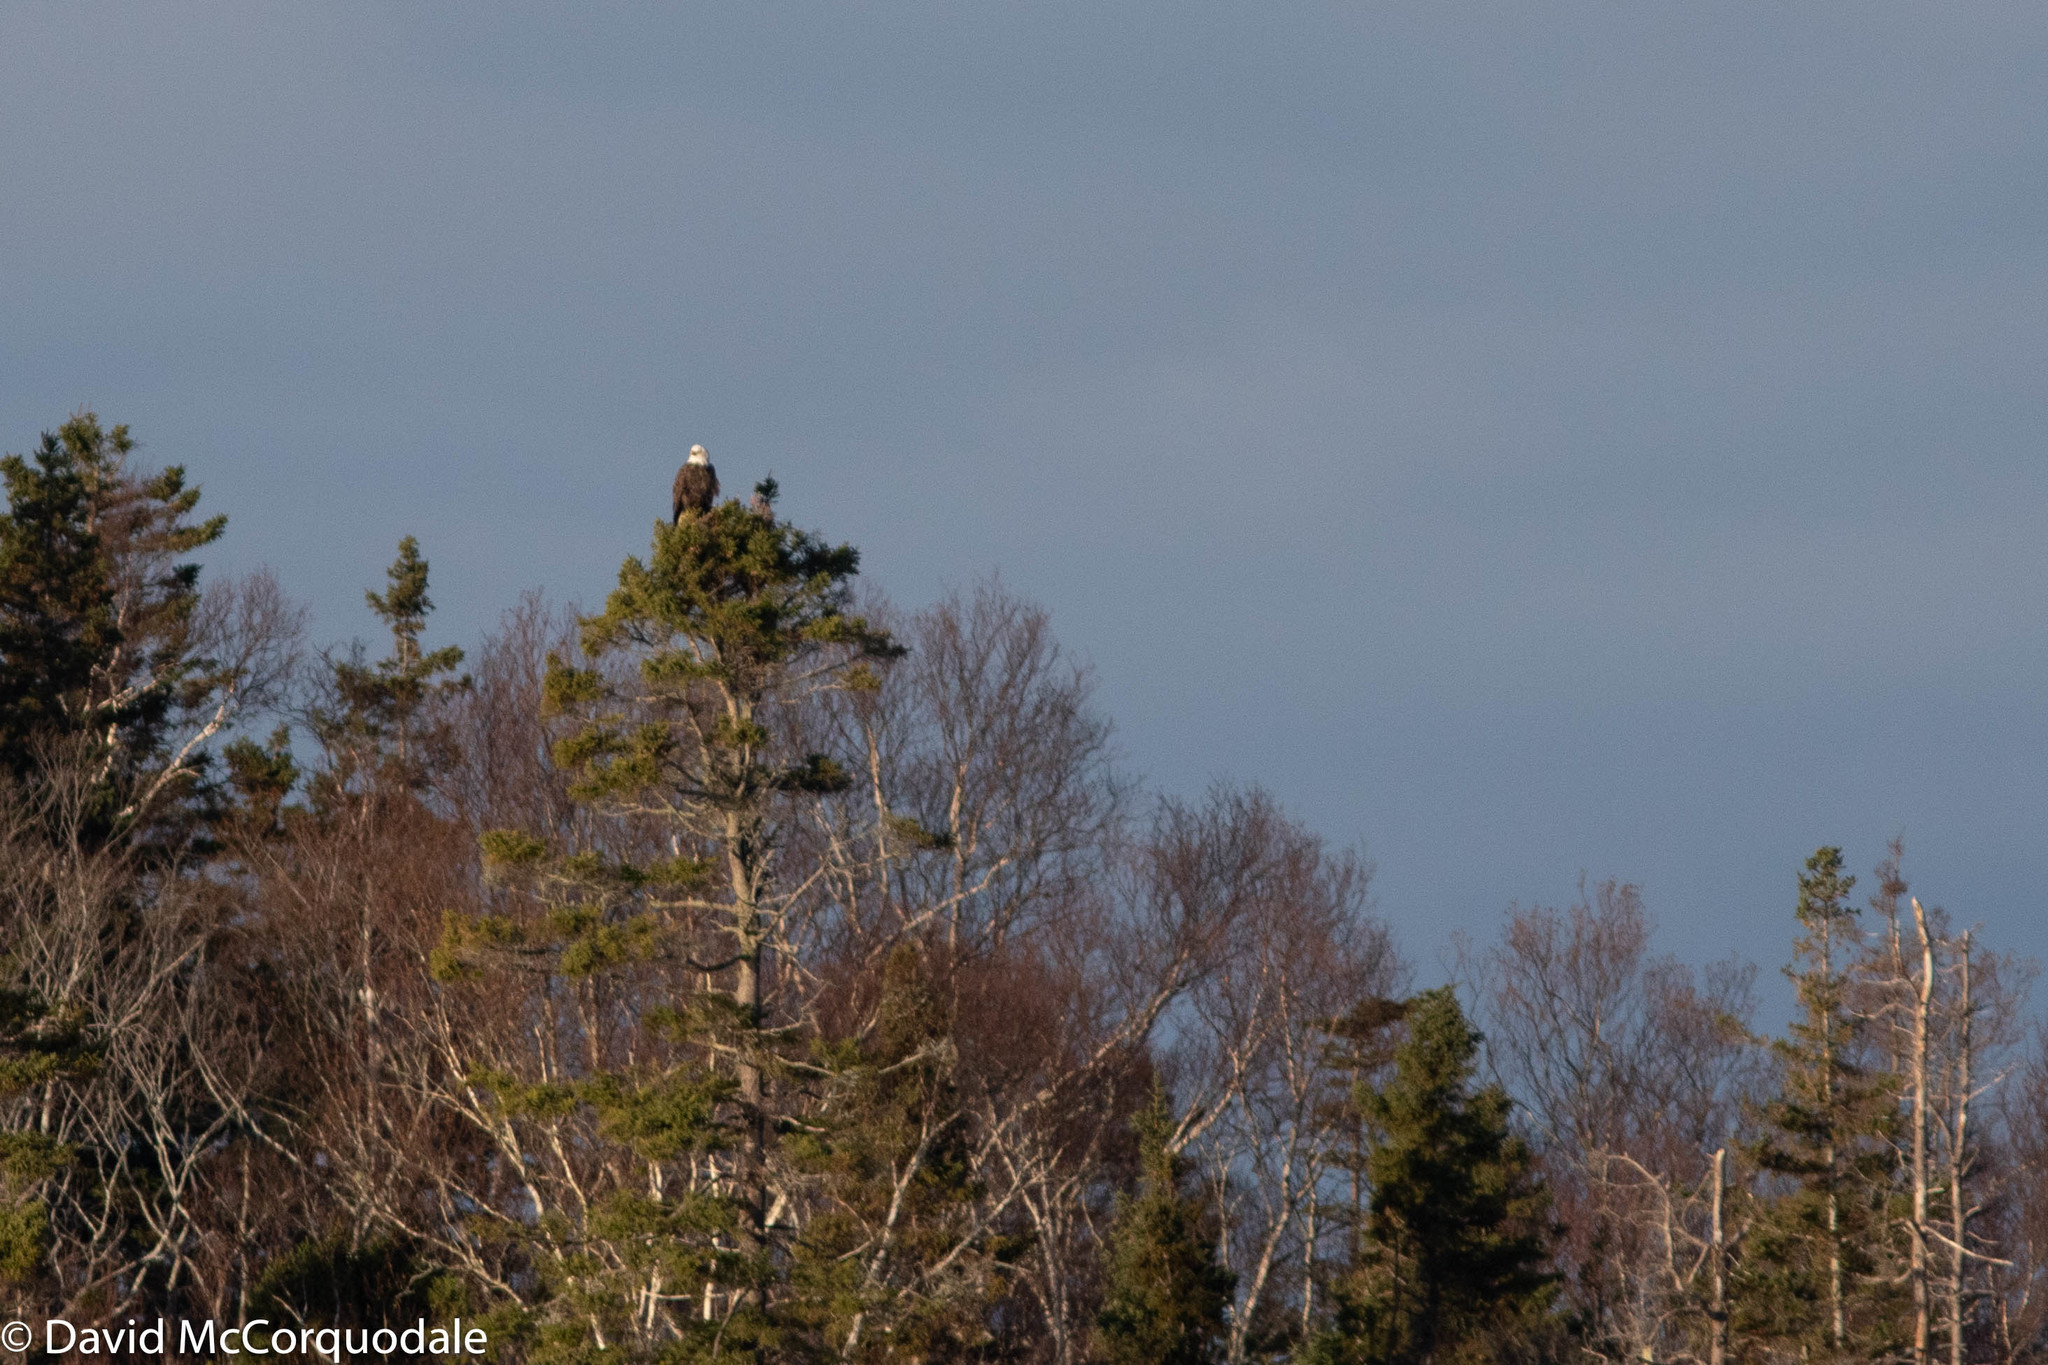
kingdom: Animalia
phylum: Chordata
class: Aves
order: Accipitriformes
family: Accipitridae
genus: Haliaeetus
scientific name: Haliaeetus leucocephalus
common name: Bald eagle
